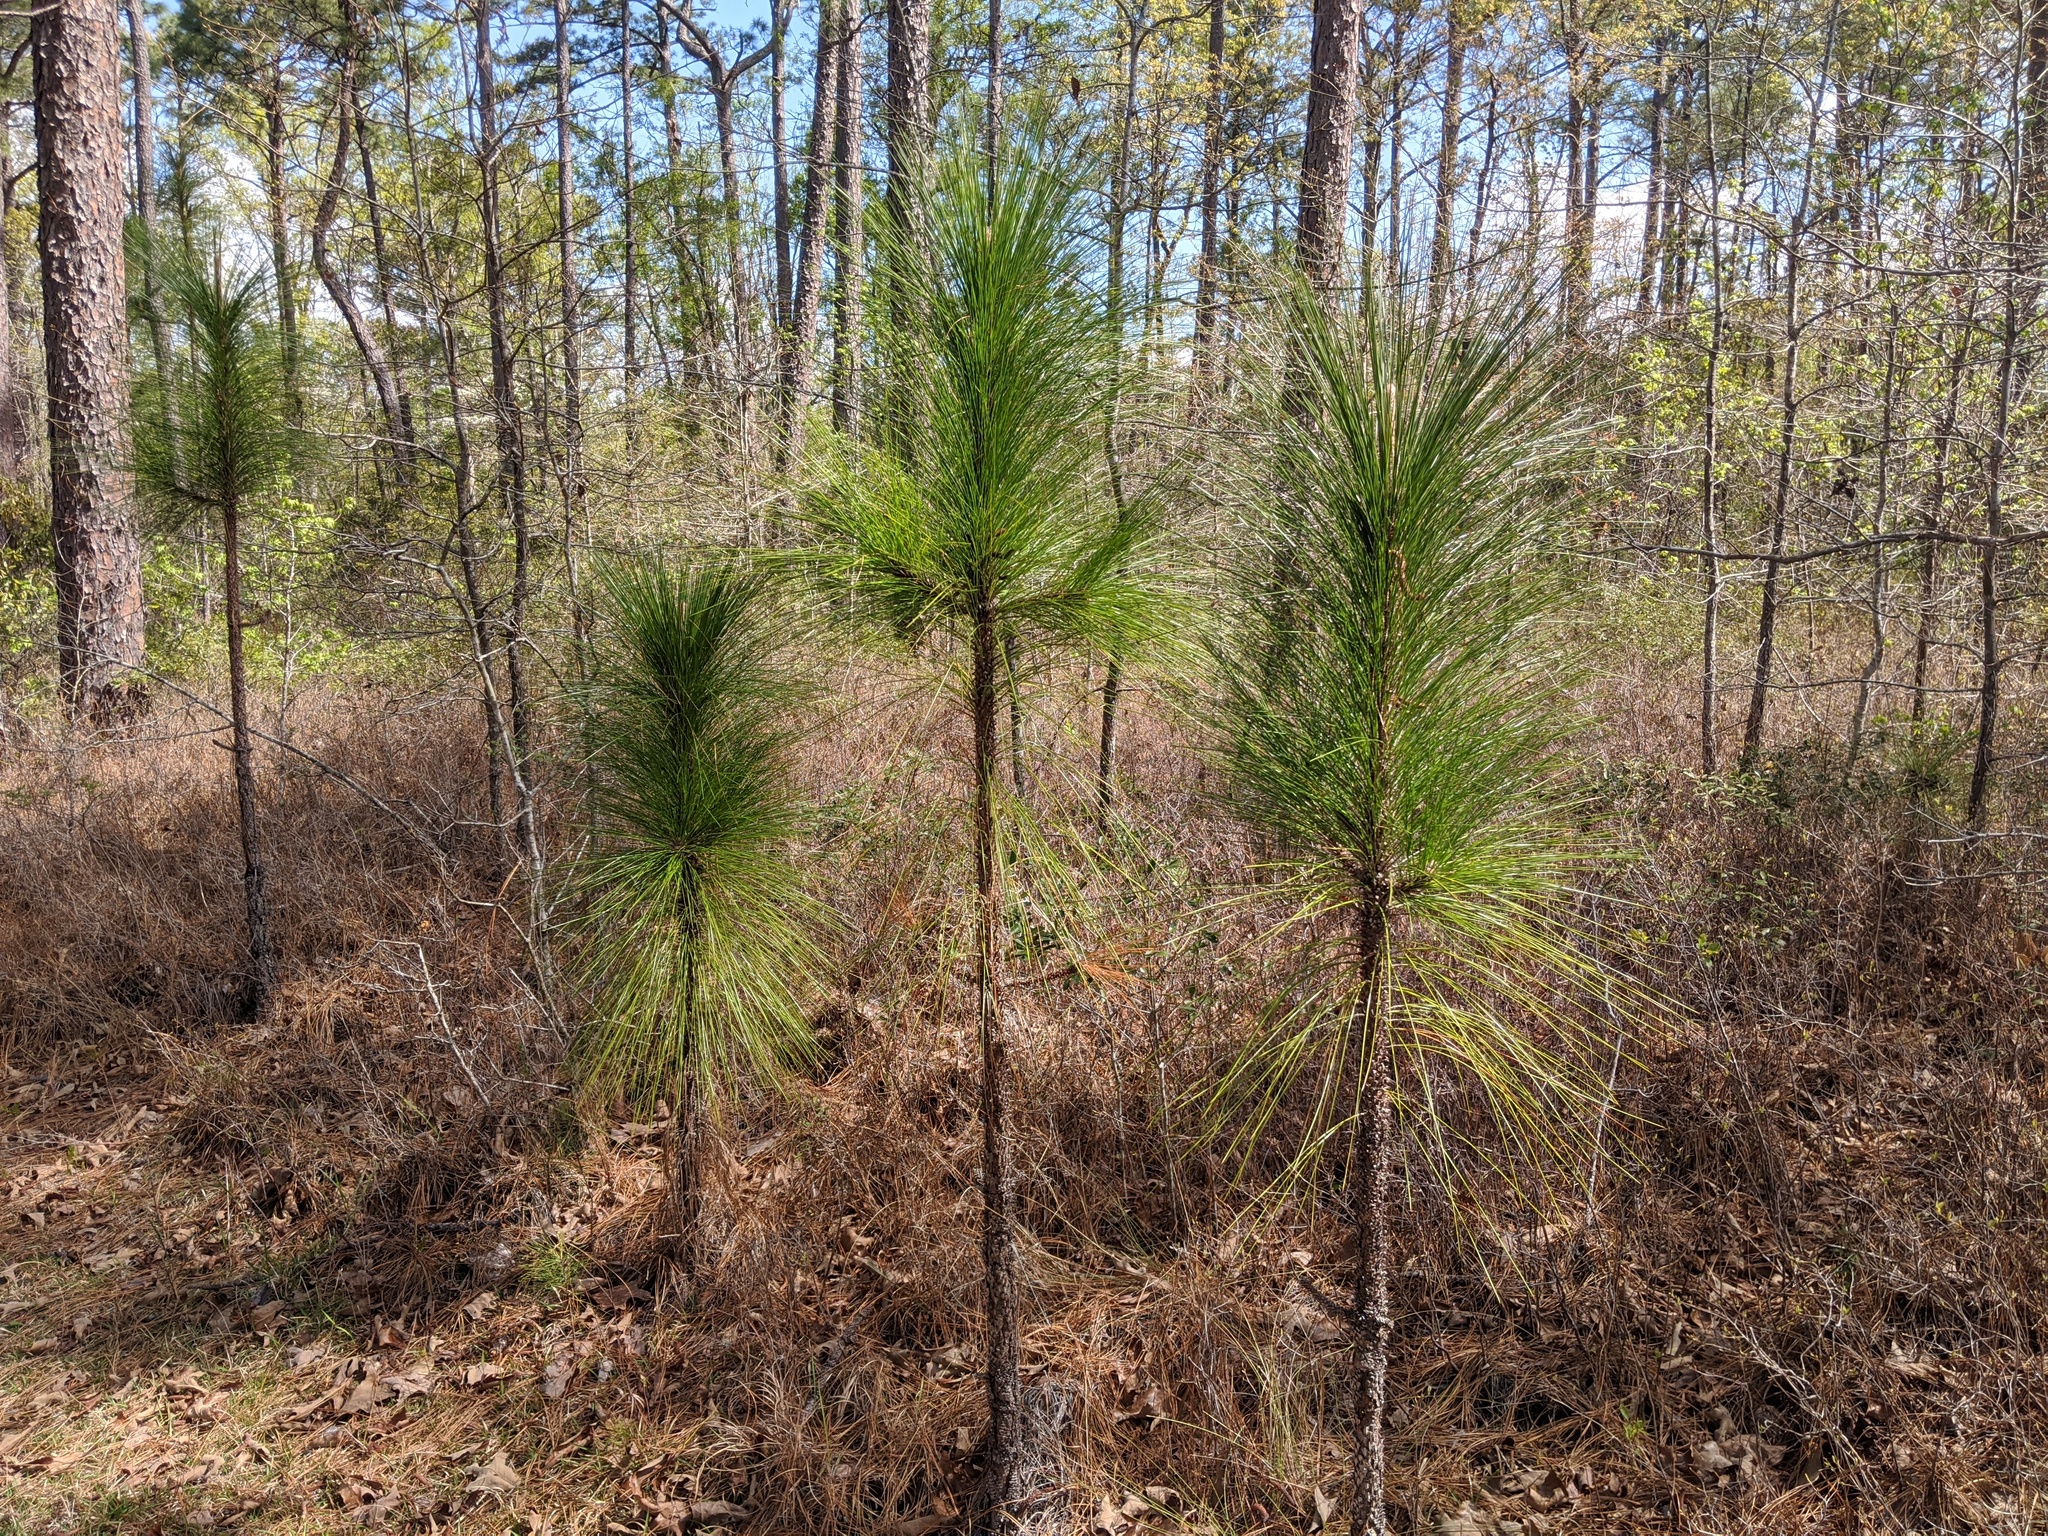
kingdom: Plantae
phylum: Tracheophyta
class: Pinopsida
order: Pinales
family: Pinaceae
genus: Pinus
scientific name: Pinus palustris
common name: Longleaf pine
